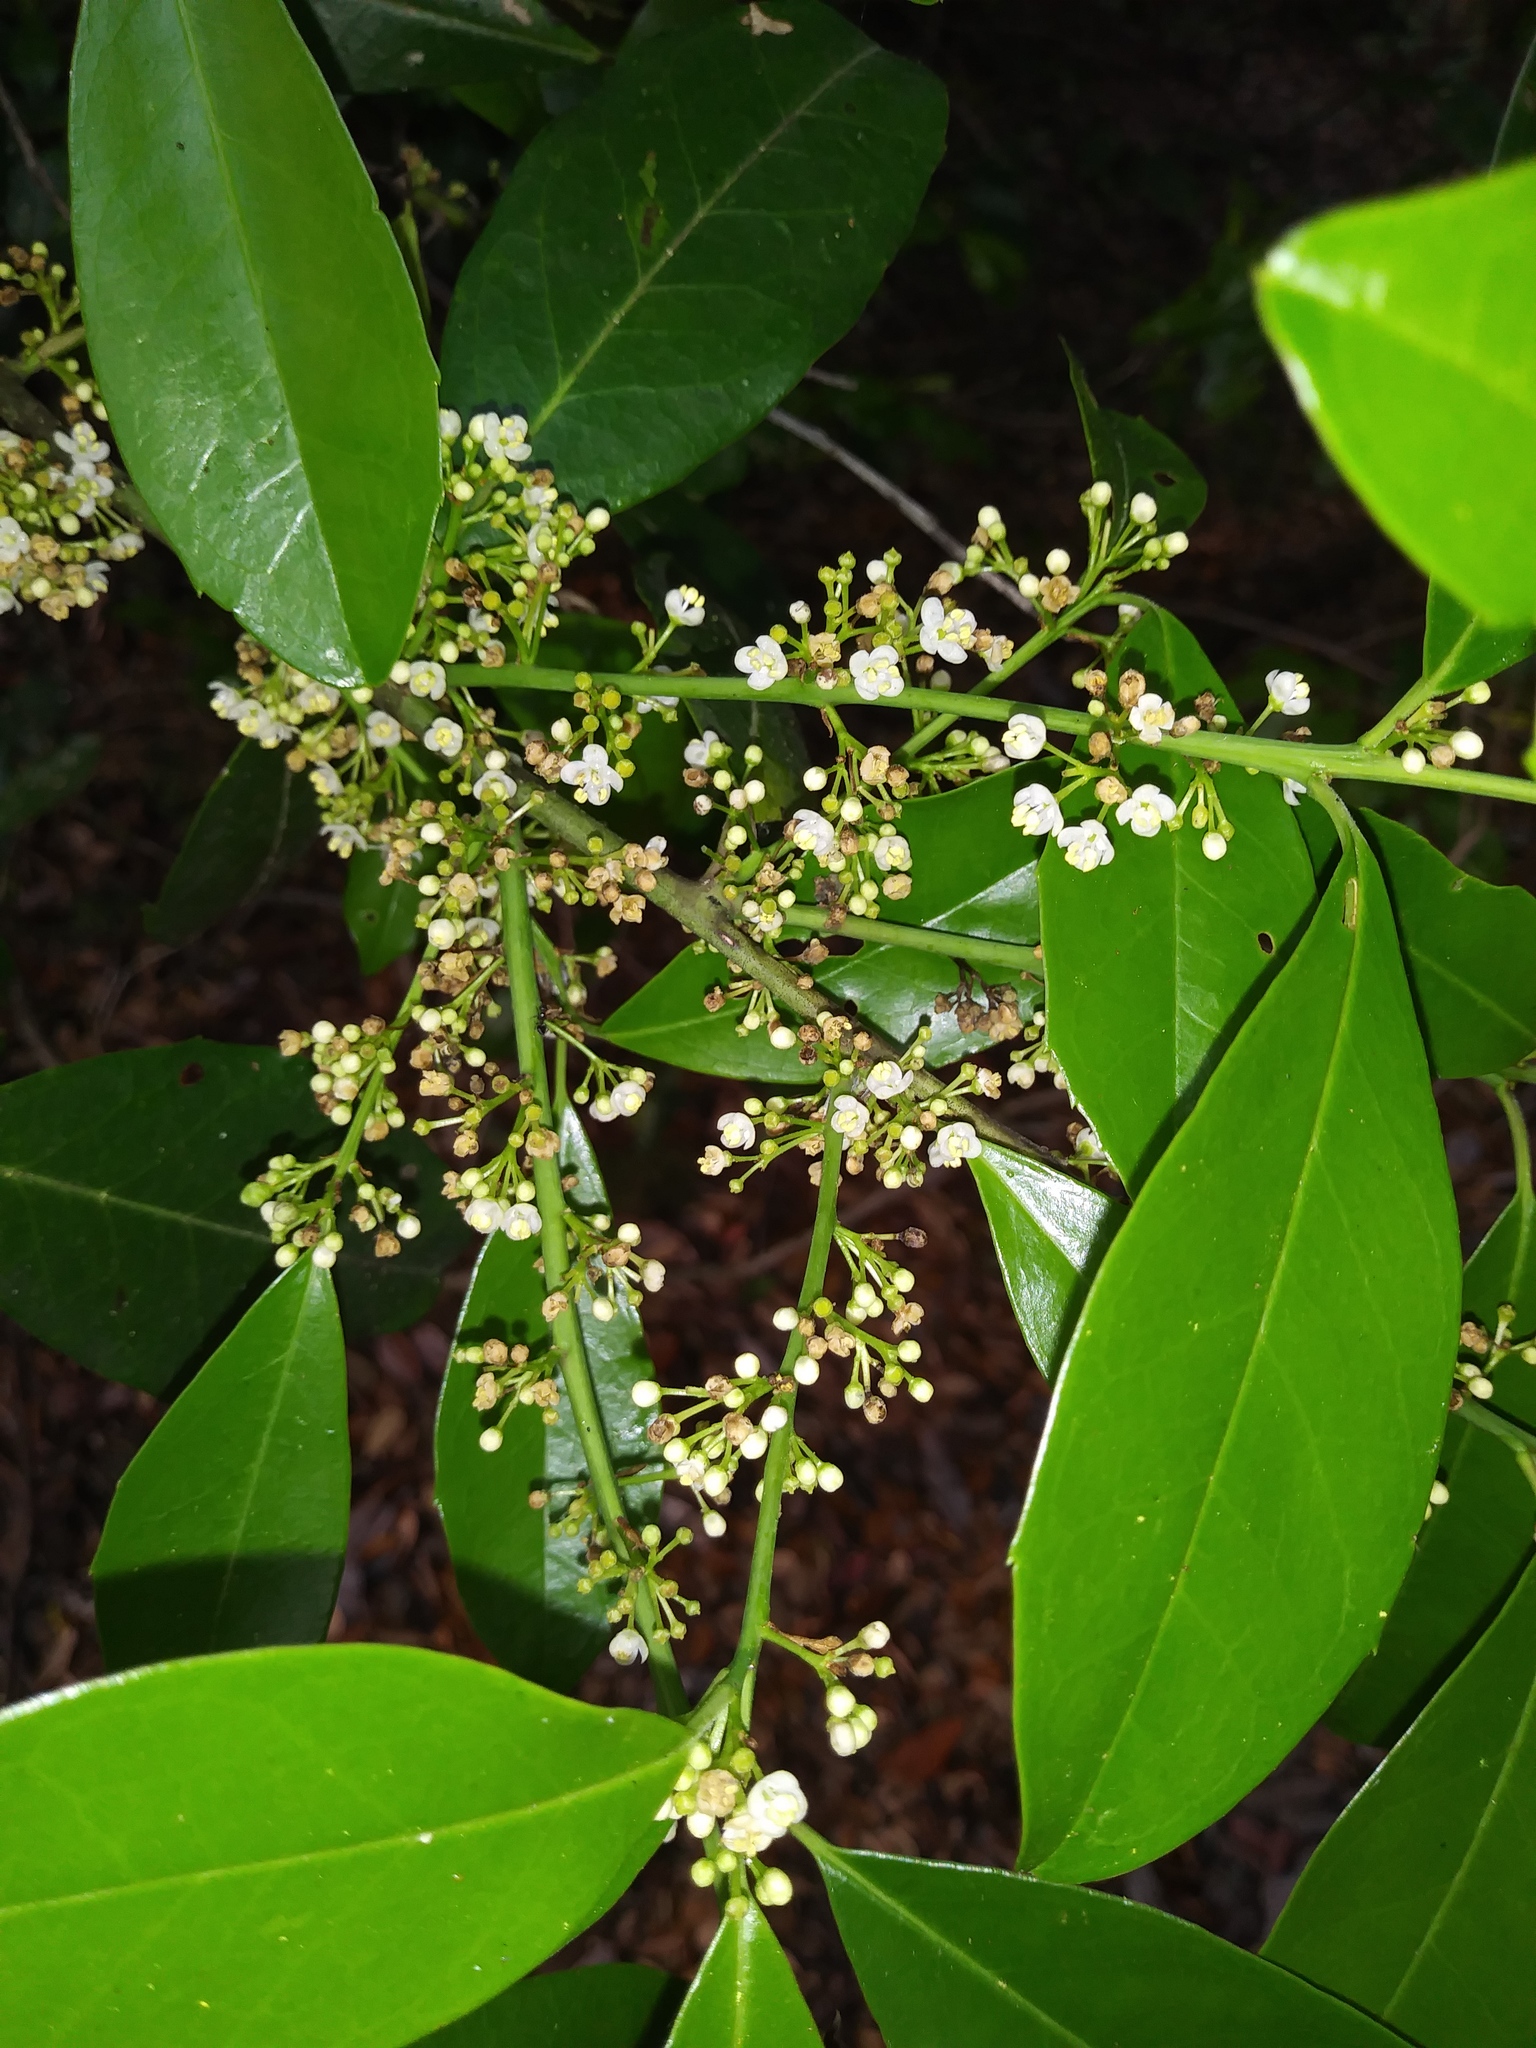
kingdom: Plantae
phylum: Tracheophyta
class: Magnoliopsida
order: Aquifoliales
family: Aquifoliaceae
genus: Ilex
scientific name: Ilex cassine
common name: Dahoon
